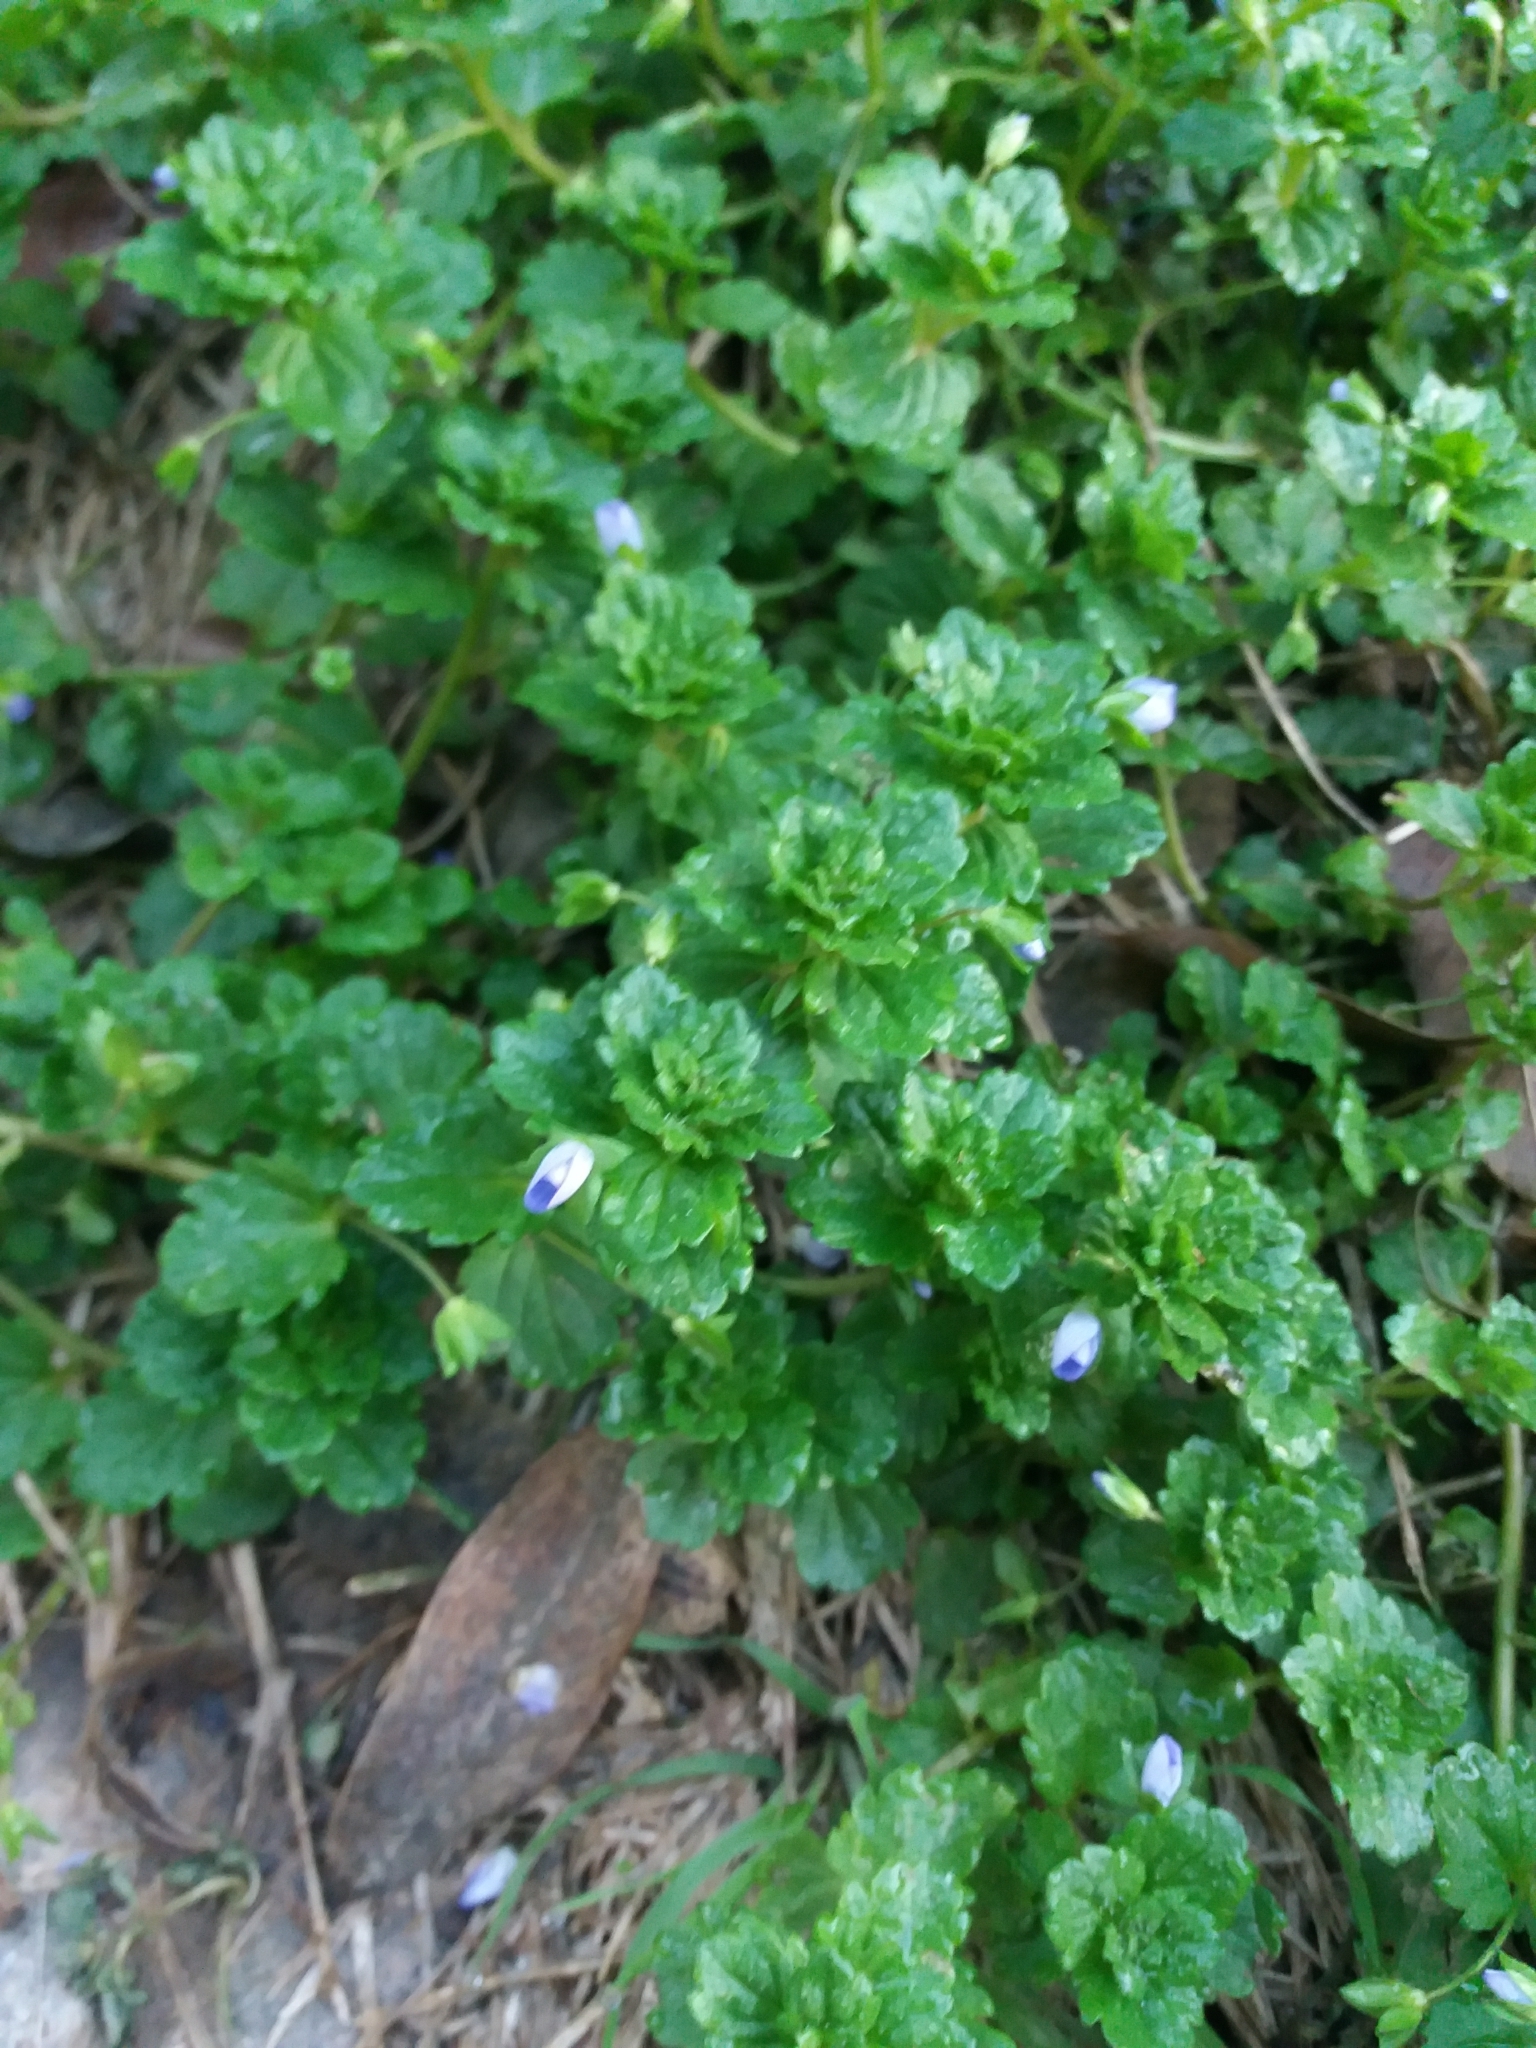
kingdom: Plantae
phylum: Tracheophyta
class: Magnoliopsida
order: Lamiales
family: Plantaginaceae
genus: Veronica
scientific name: Veronica persica
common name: Common field-speedwell
